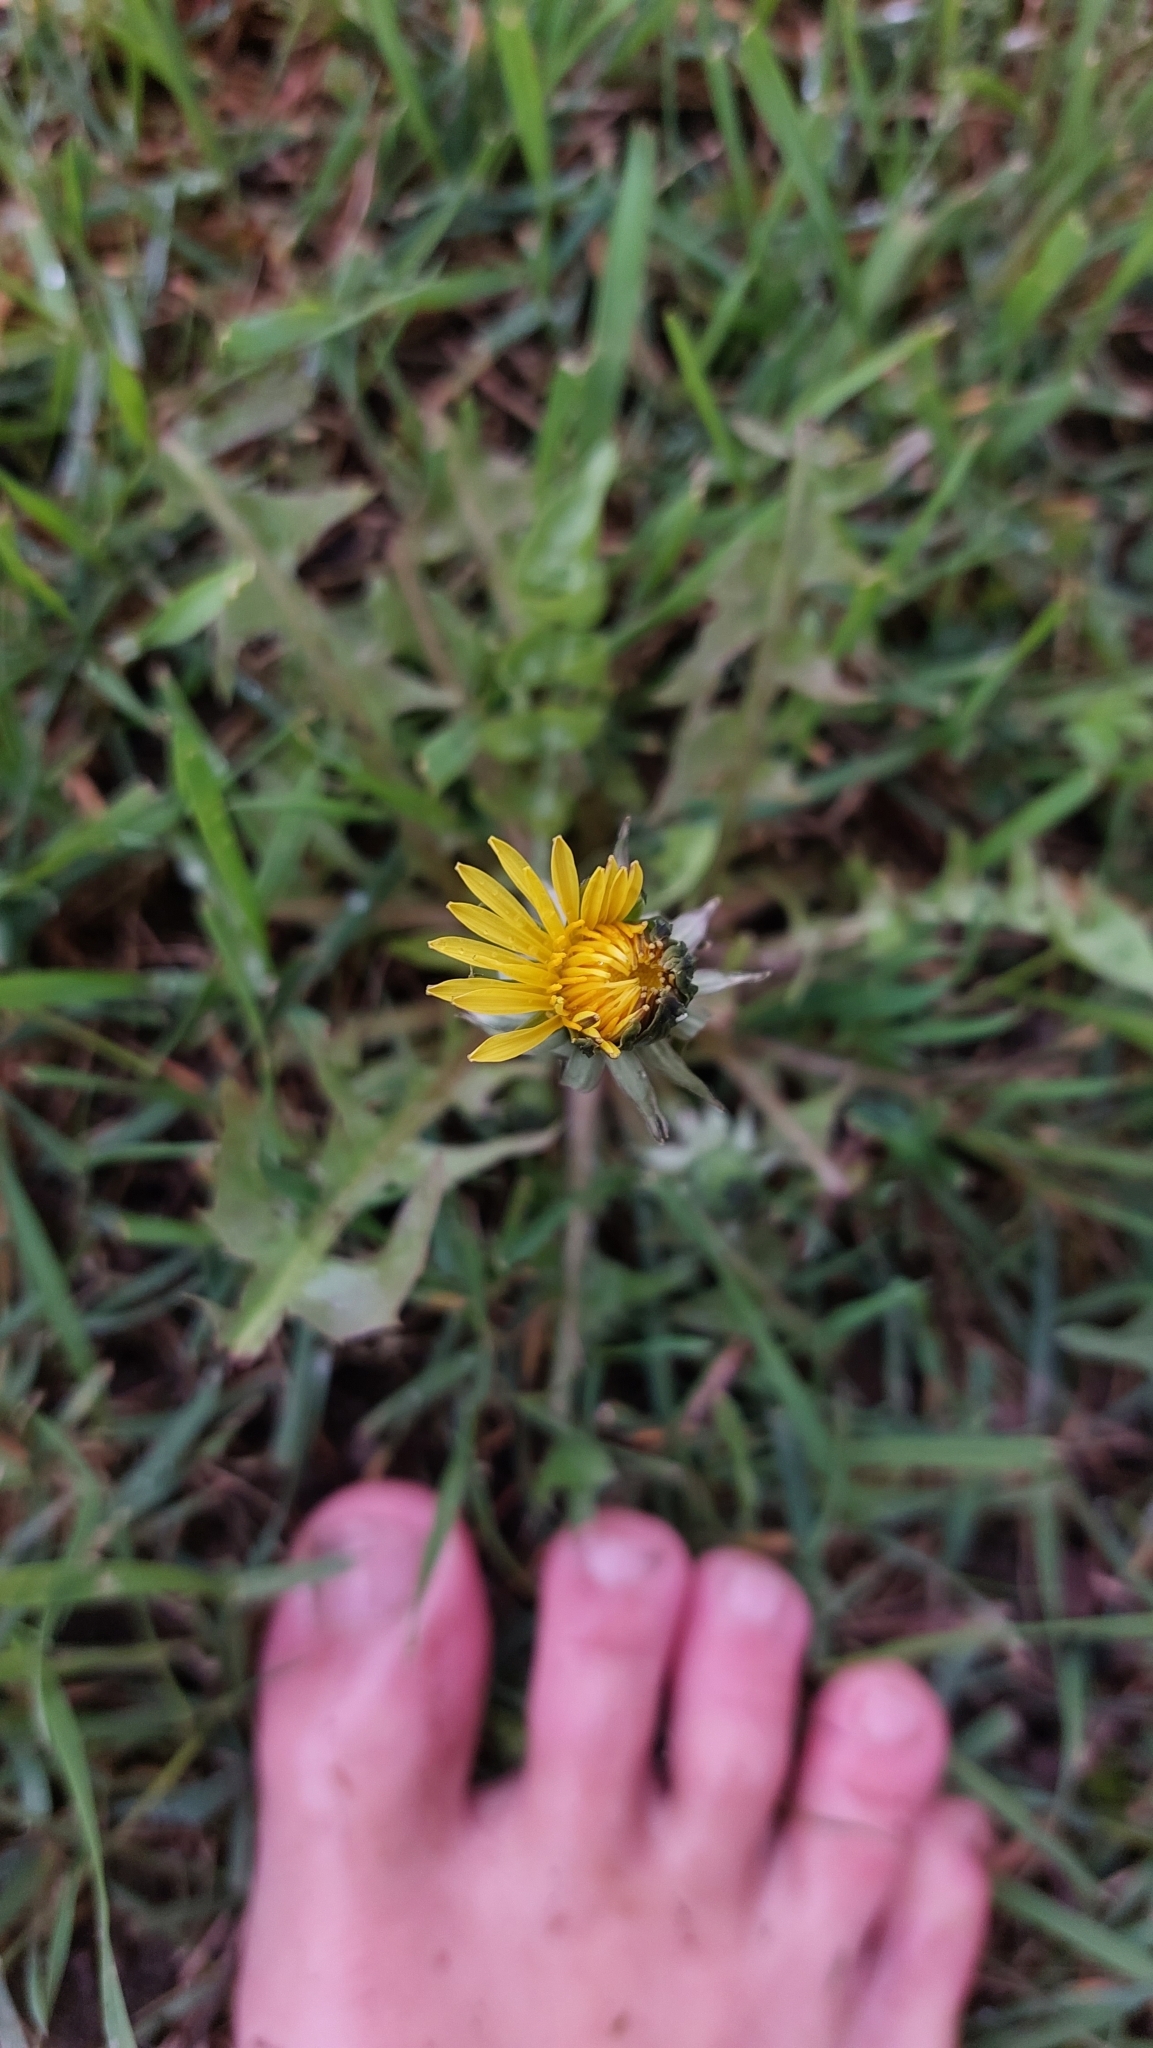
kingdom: Plantae
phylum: Tracheophyta
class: Magnoliopsida
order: Asterales
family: Asteraceae
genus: Taraxacum
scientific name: Taraxacum
